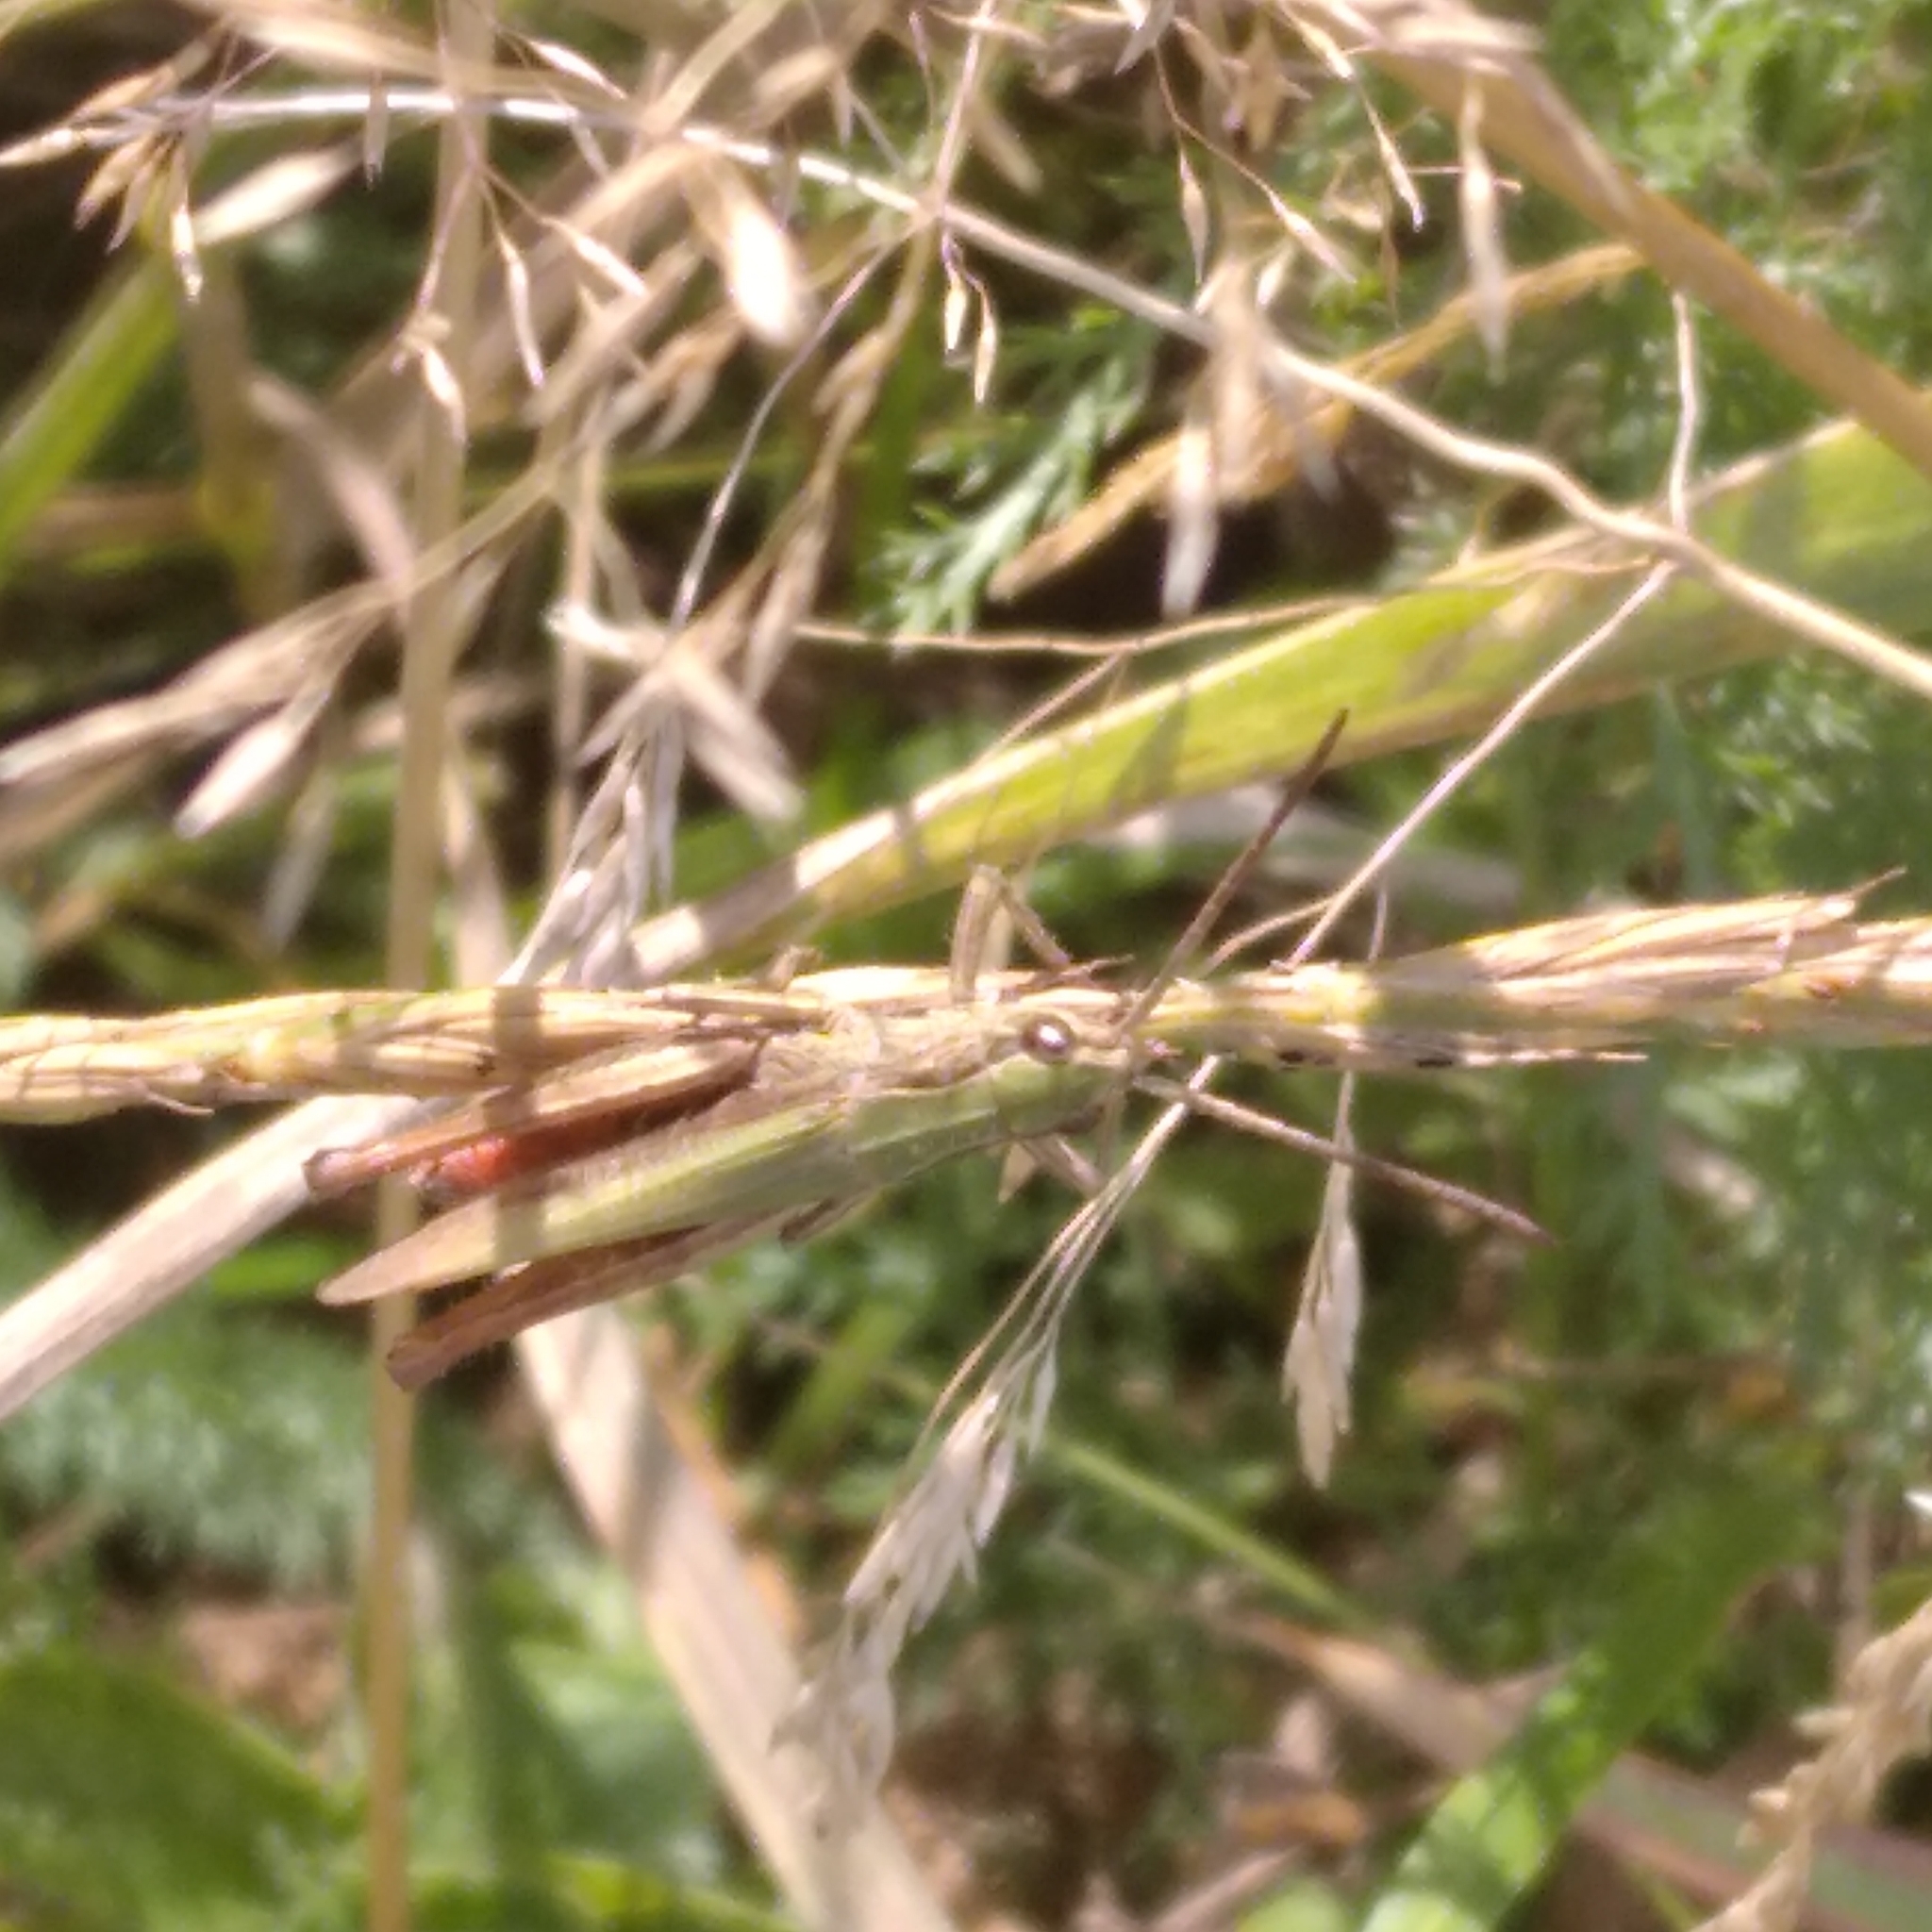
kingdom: Animalia
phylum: Arthropoda
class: Insecta
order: Orthoptera
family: Acrididae
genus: Chorthippus
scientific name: Chorthippus dorsatus
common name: Steppe grasshopper
